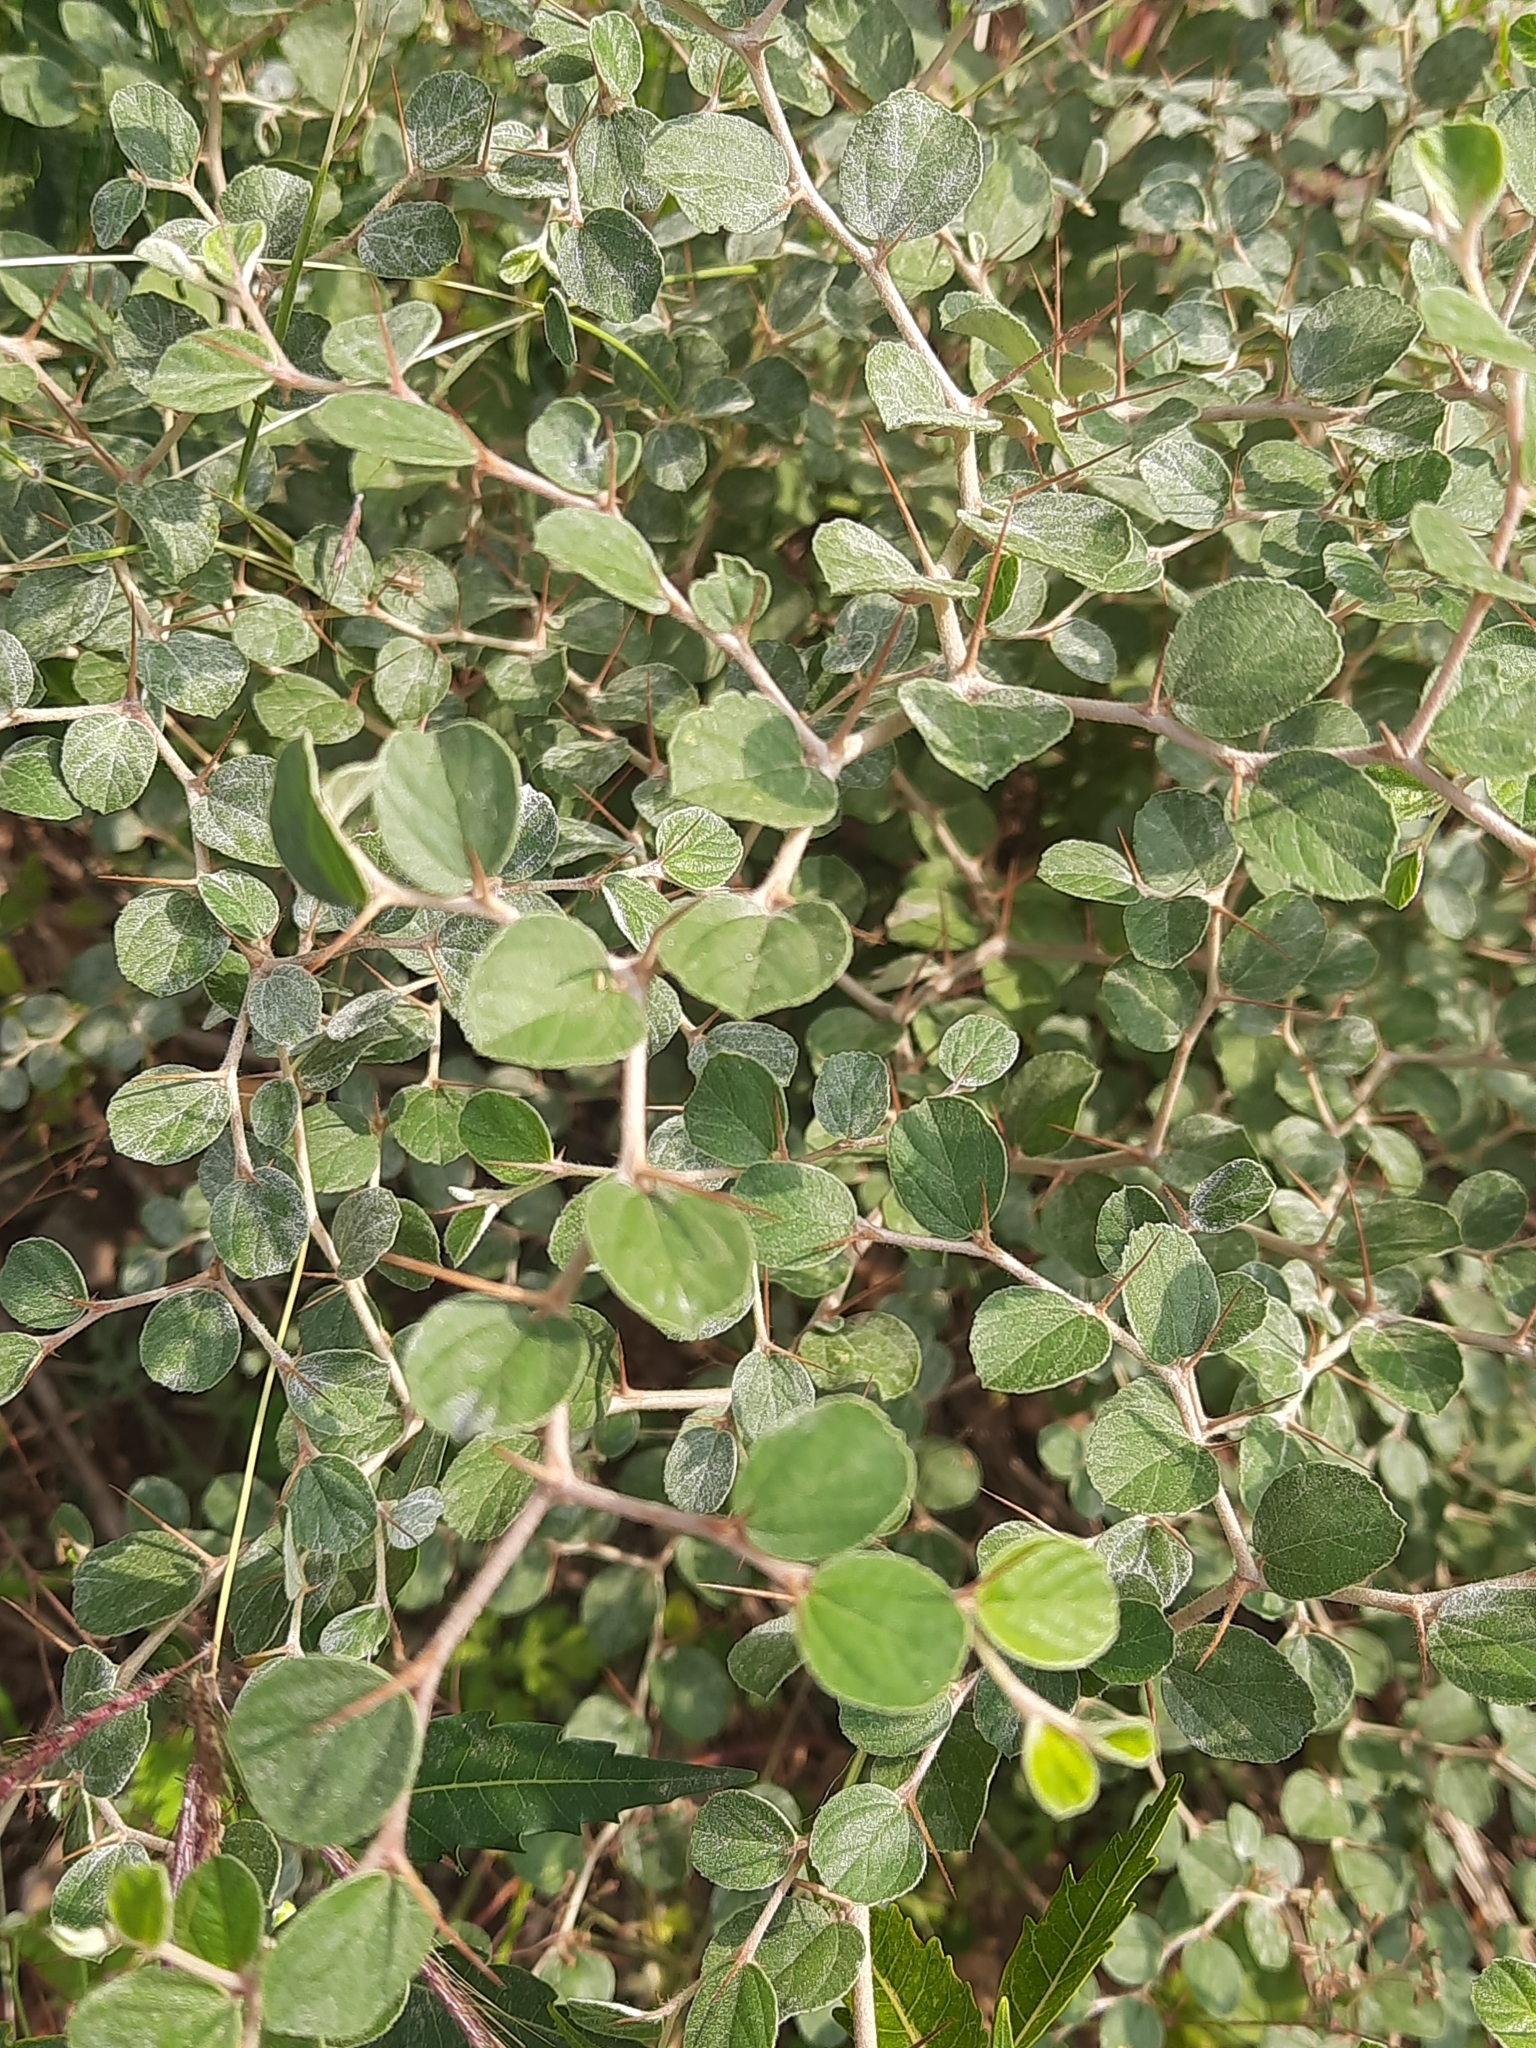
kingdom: Plantae
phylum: Tracheophyta
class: Magnoliopsida
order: Rosales
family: Rhamnaceae
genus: Ziziphus
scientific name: Ziziphus nummularia
